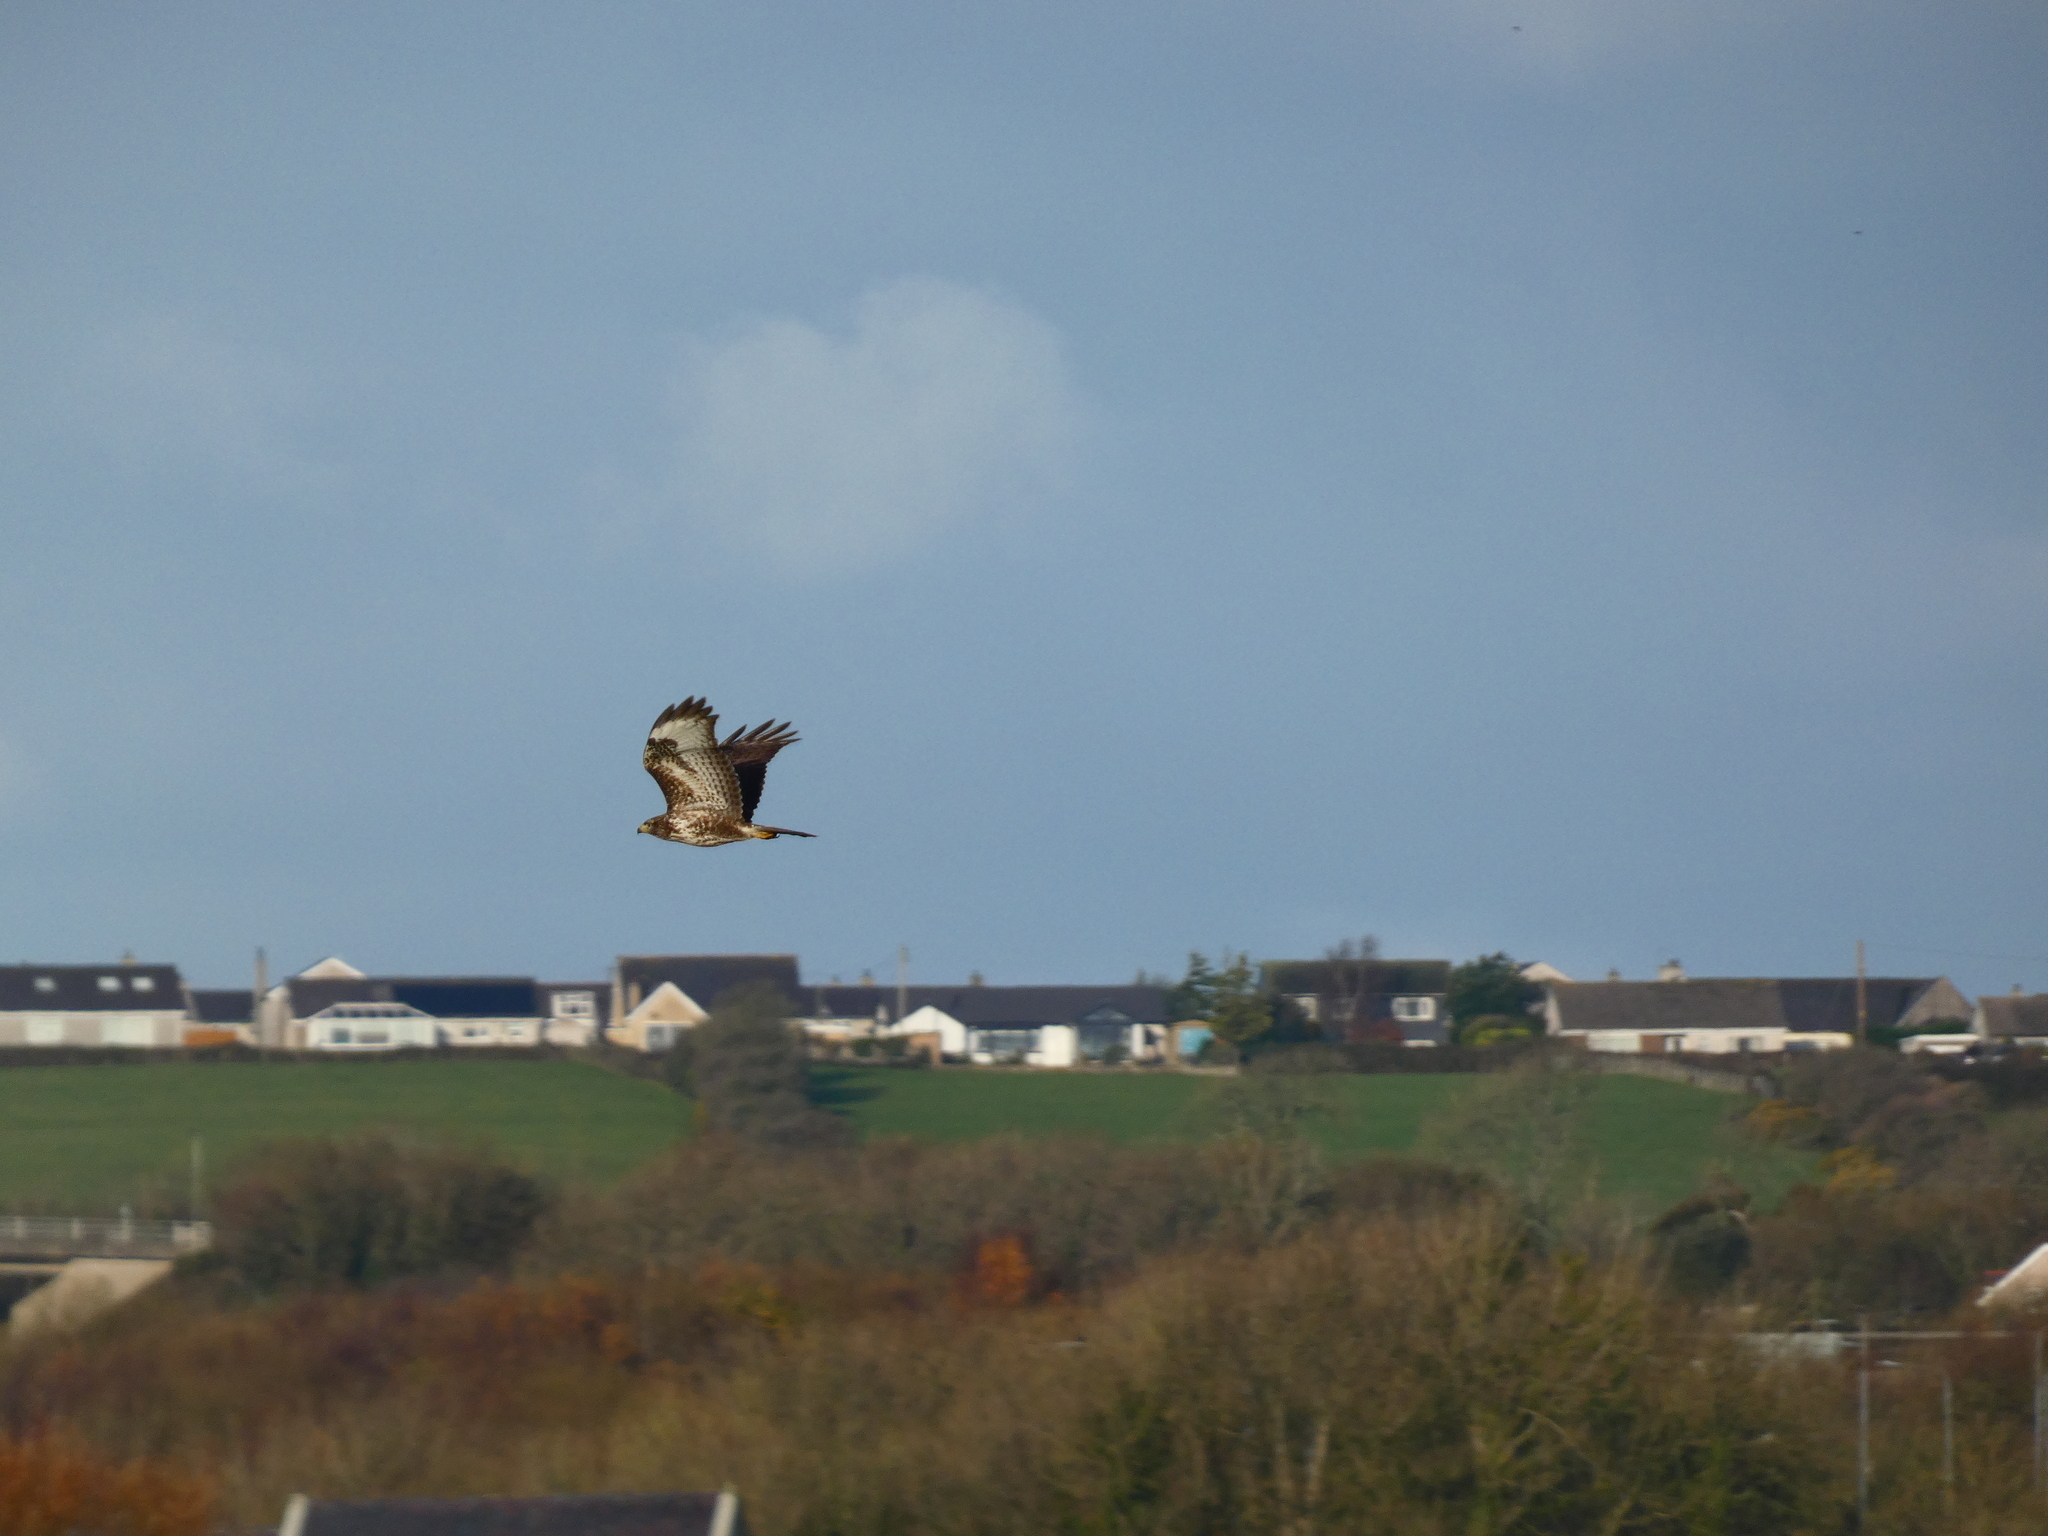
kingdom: Animalia
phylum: Chordata
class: Aves
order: Accipitriformes
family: Accipitridae
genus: Buteo
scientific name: Buteo buteo
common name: Common buzzard
